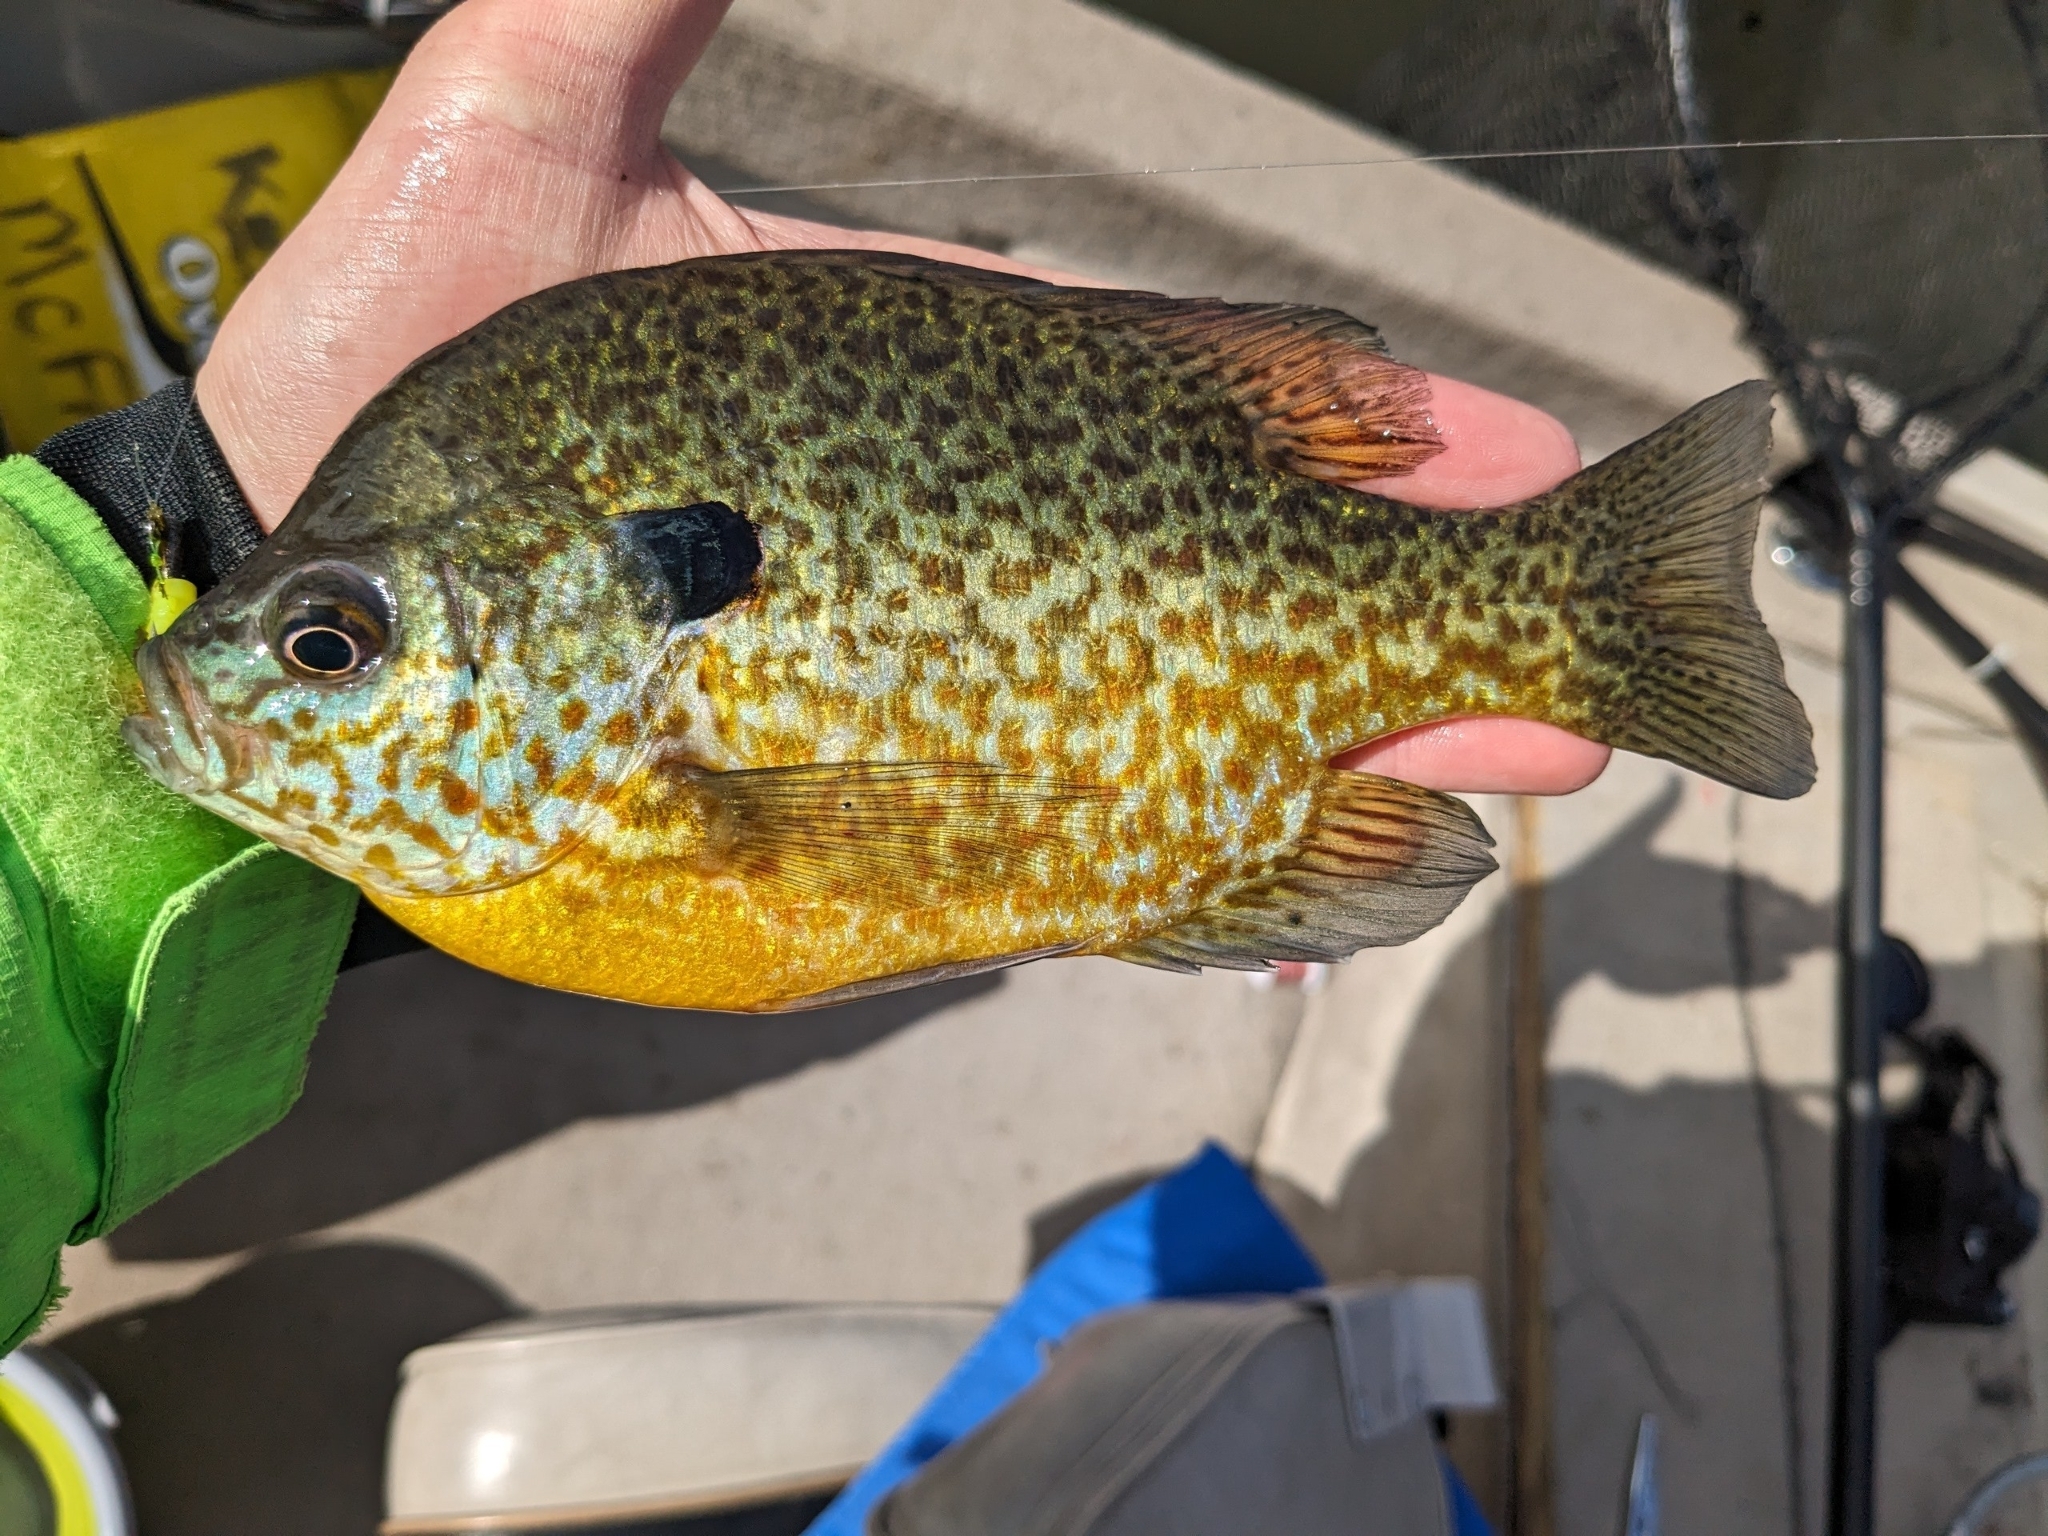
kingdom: Animalia
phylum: Chordata
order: Perciformes
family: Centrarchidae
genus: Lepomis
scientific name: Lepomis
